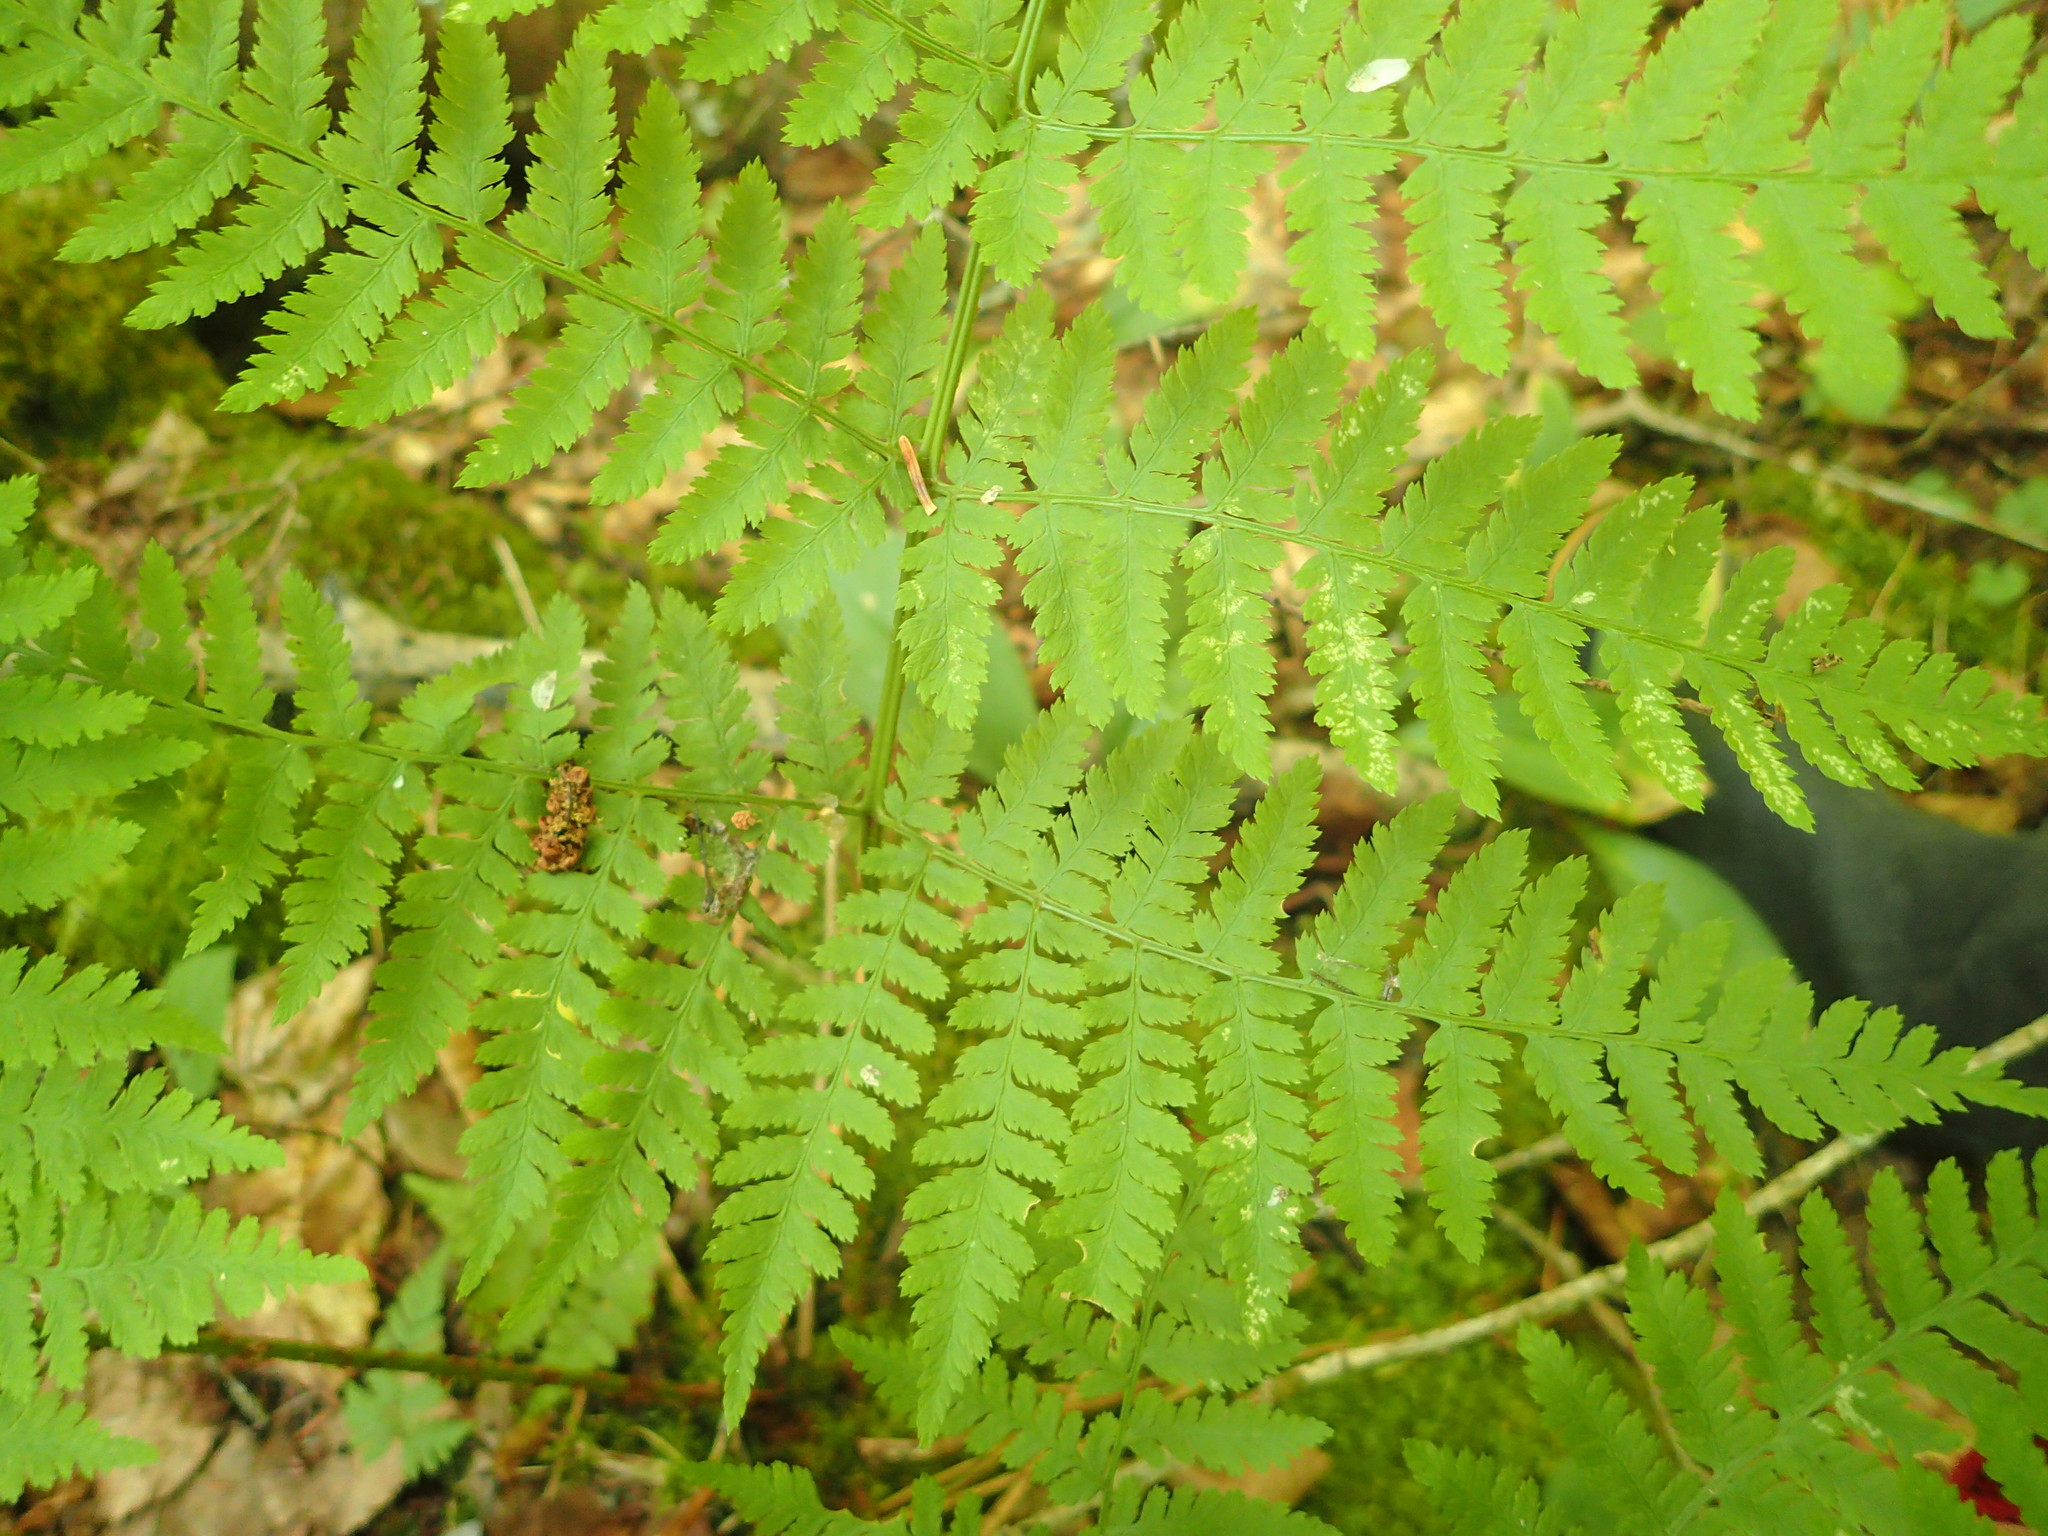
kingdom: Plantae
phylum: Tracheophyta
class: Polypodiopsida
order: Polypodiales
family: Dryopteridaceae
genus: Dryopteris
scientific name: Dryopteris carthusiana
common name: Narrow buckler-fern
